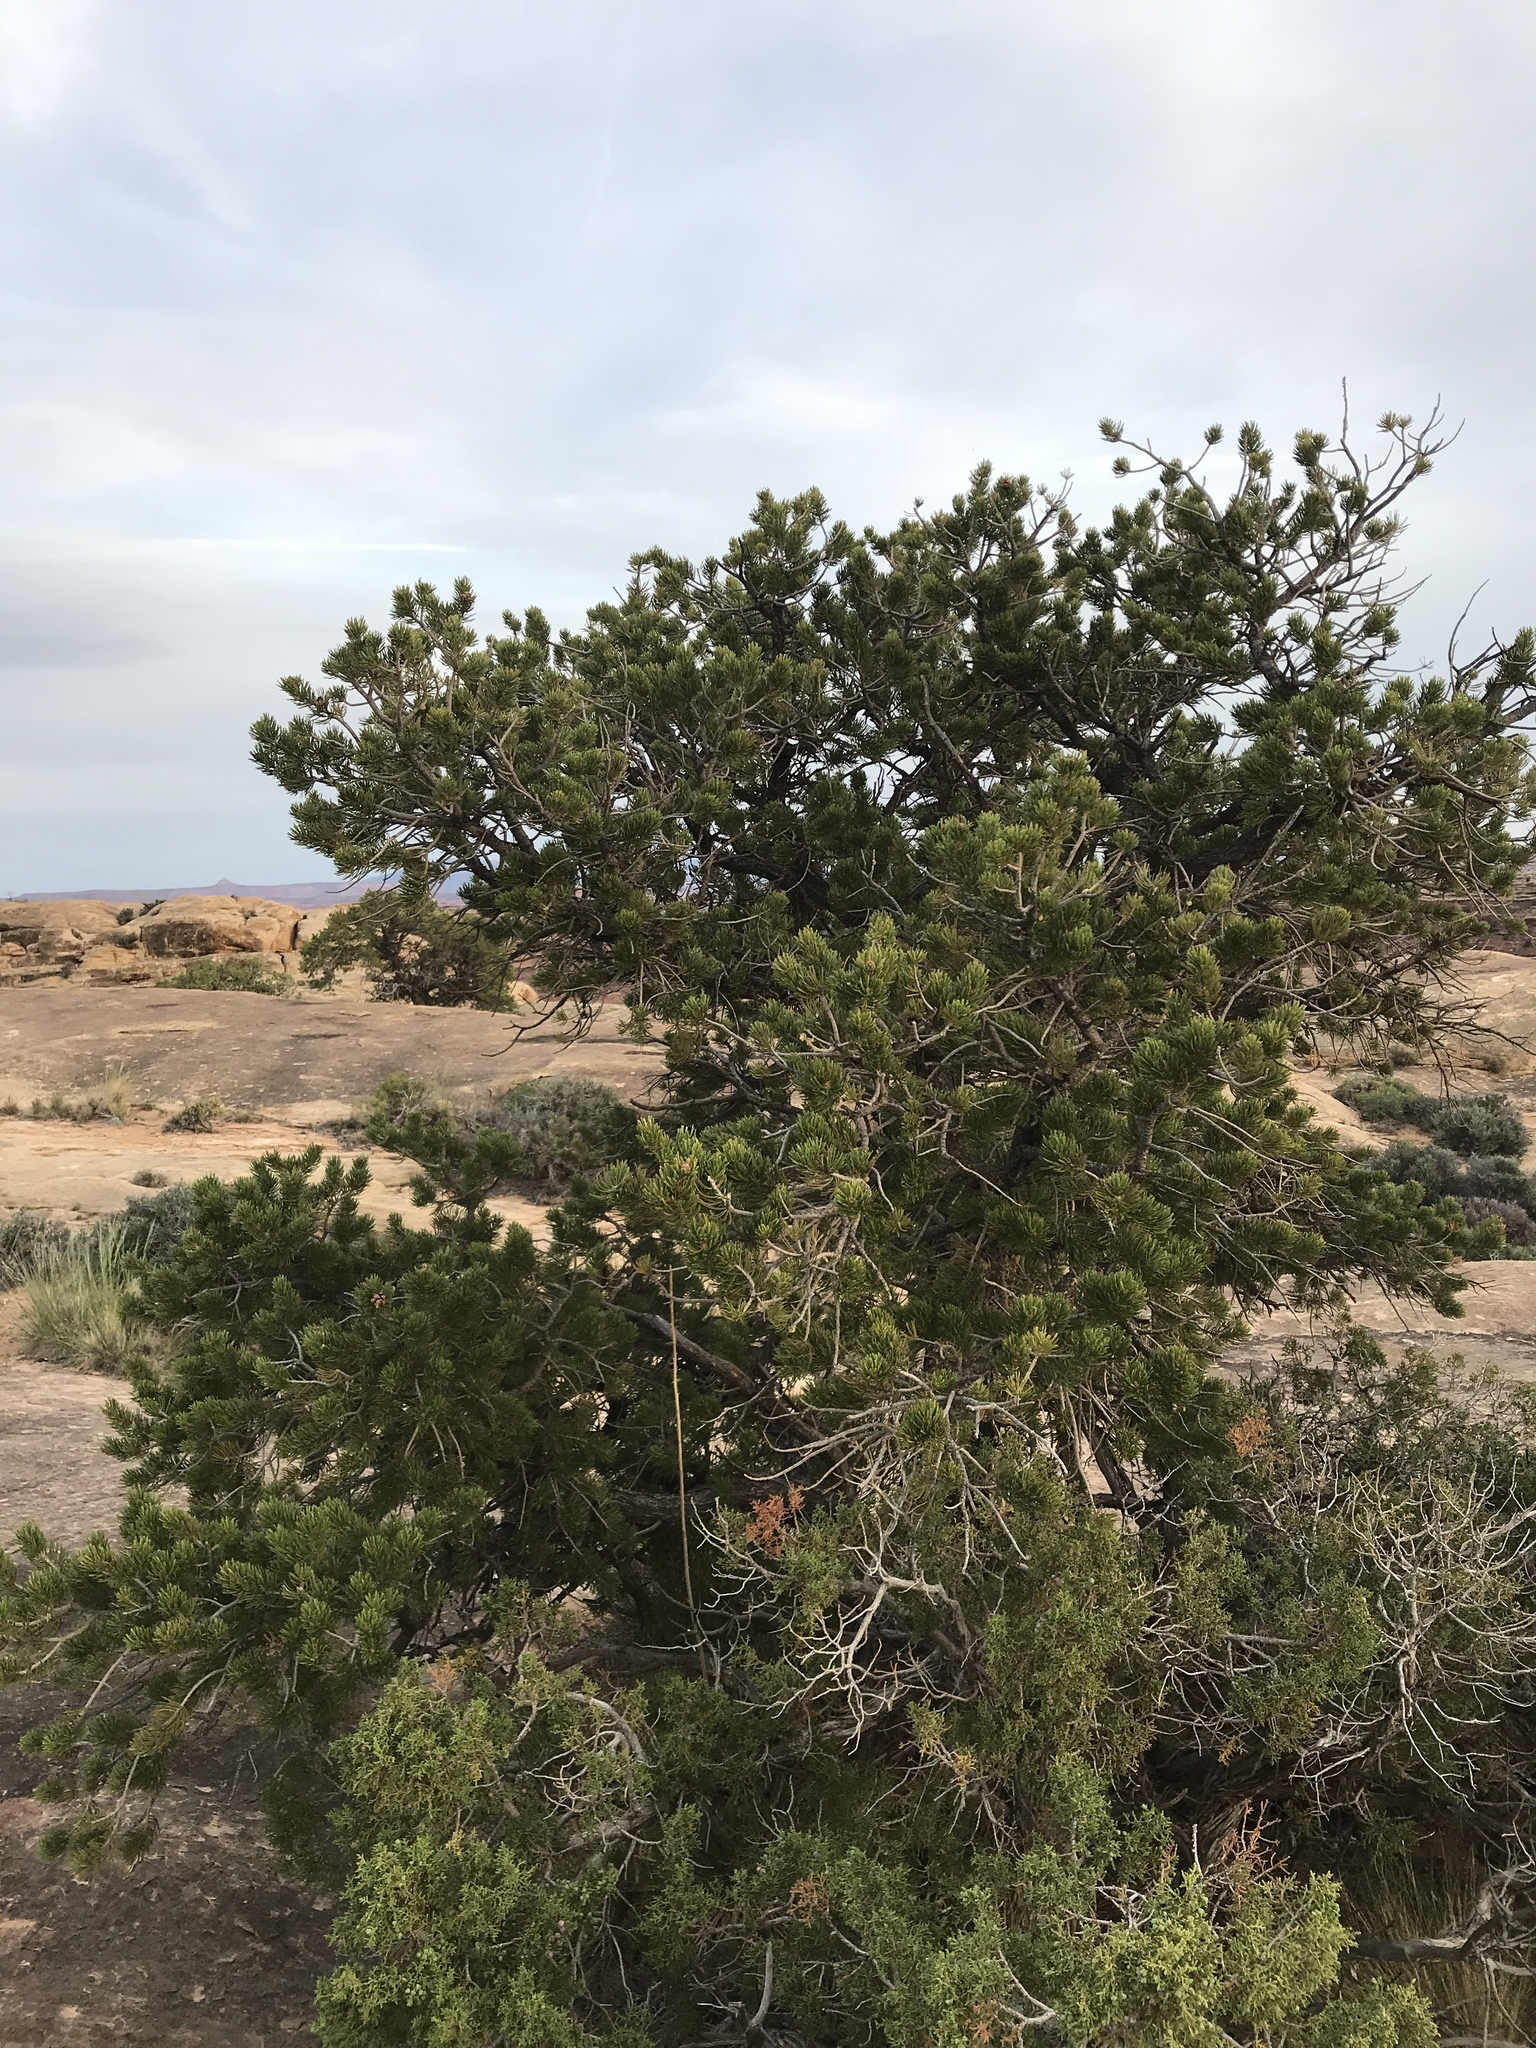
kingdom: Plantae
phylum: Tracheophyta
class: Pinopsida
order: Pinales
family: Pinaceae
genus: Pinus
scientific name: Pinus edulis
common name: Colorado pinyon
